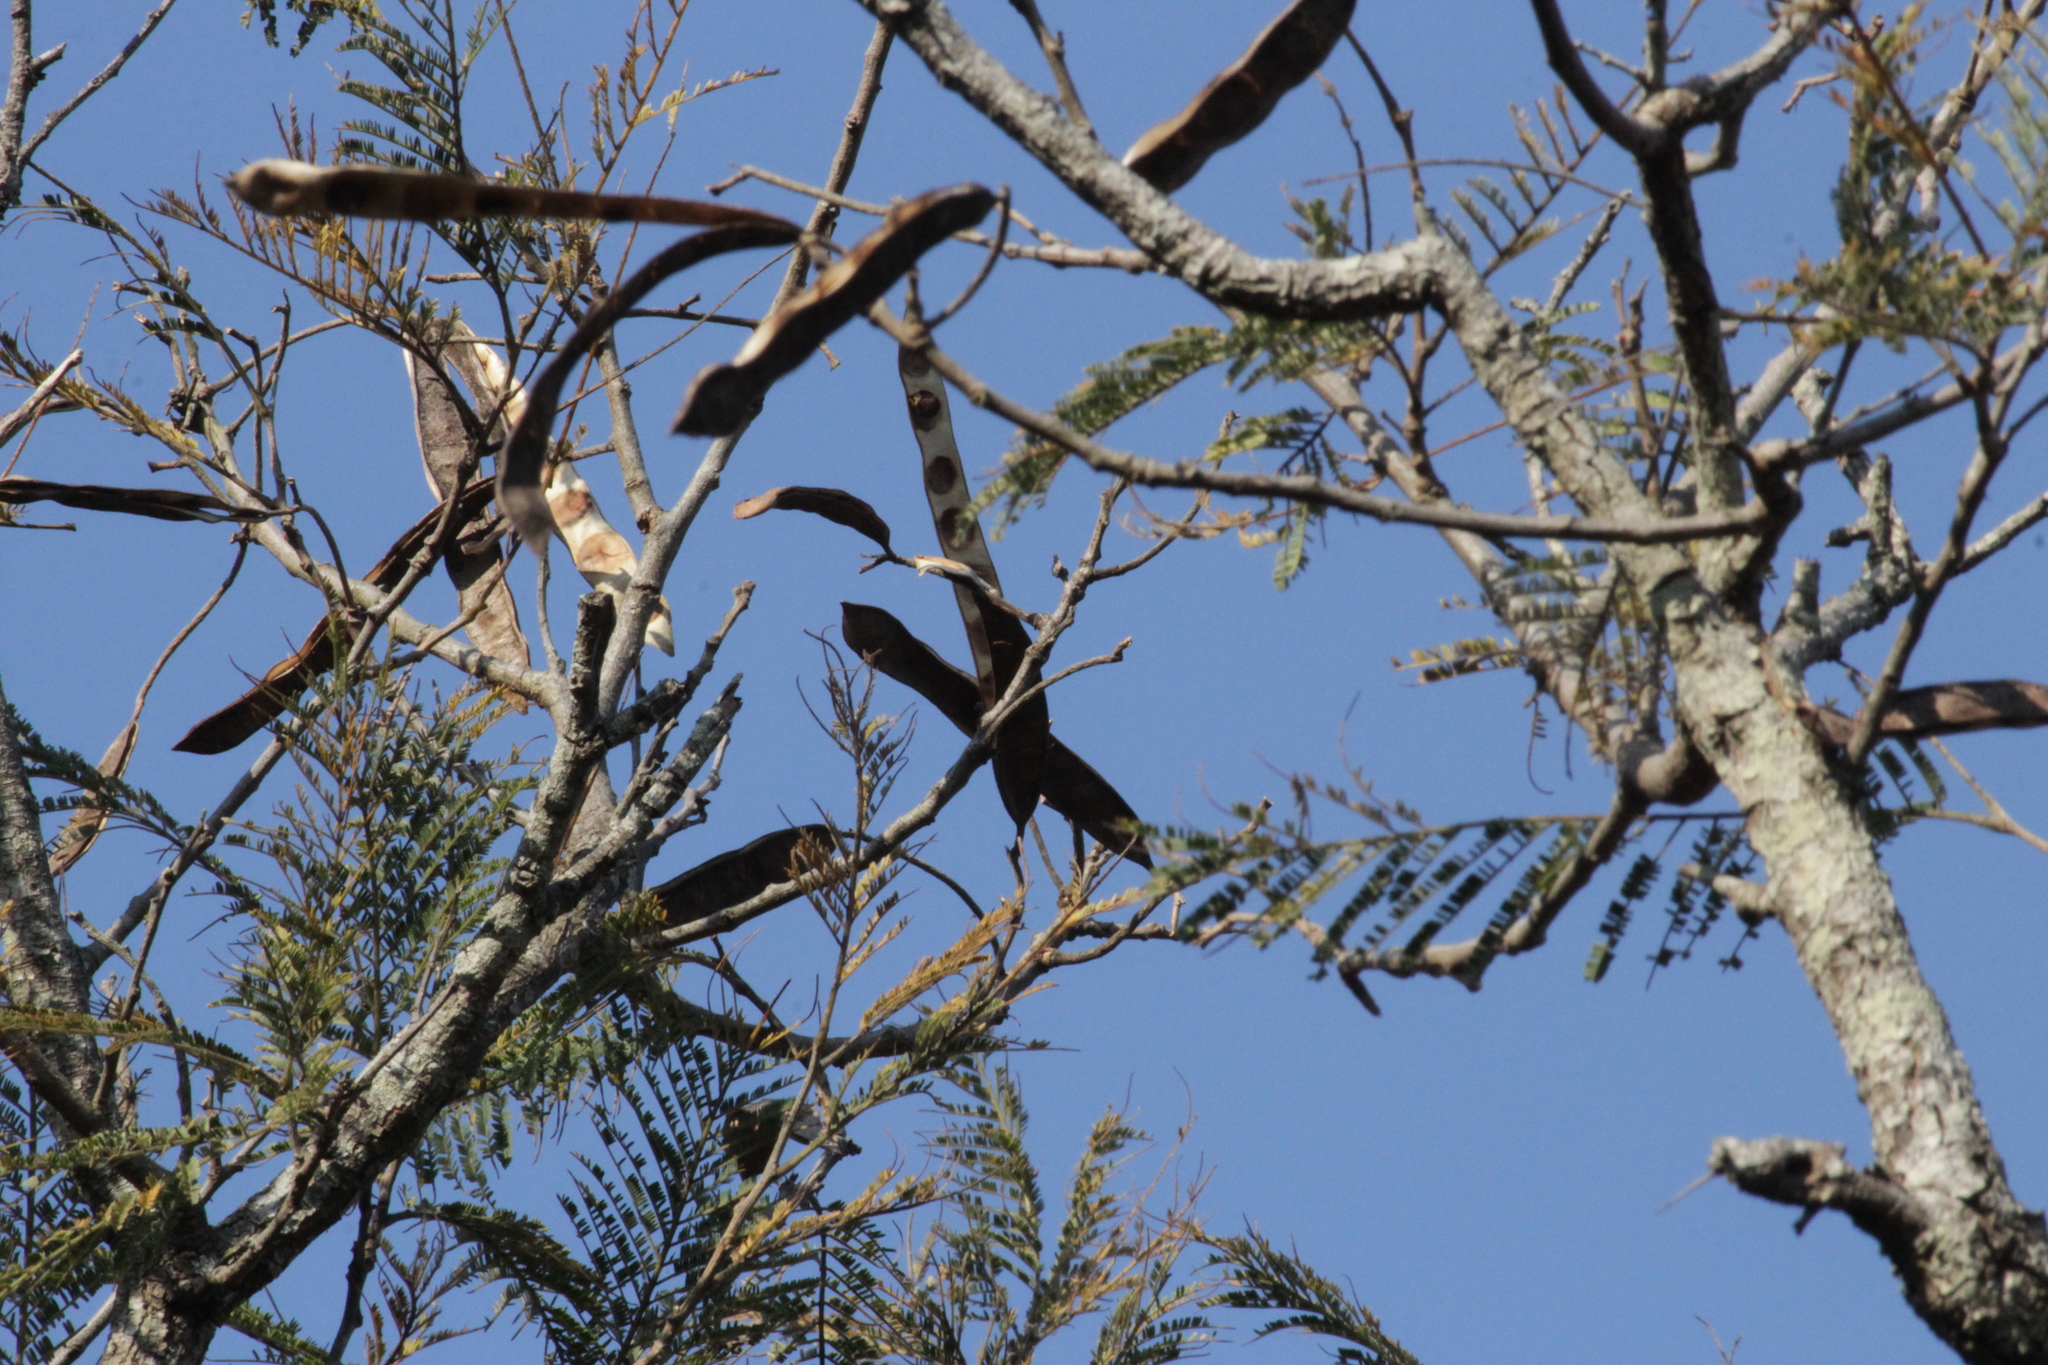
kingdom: Plantae
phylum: Tracheophyta
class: Magnoliopsida
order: Fabales
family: Fabaceae
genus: Senegalia
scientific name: Senegalia caffra
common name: Cat thorn
